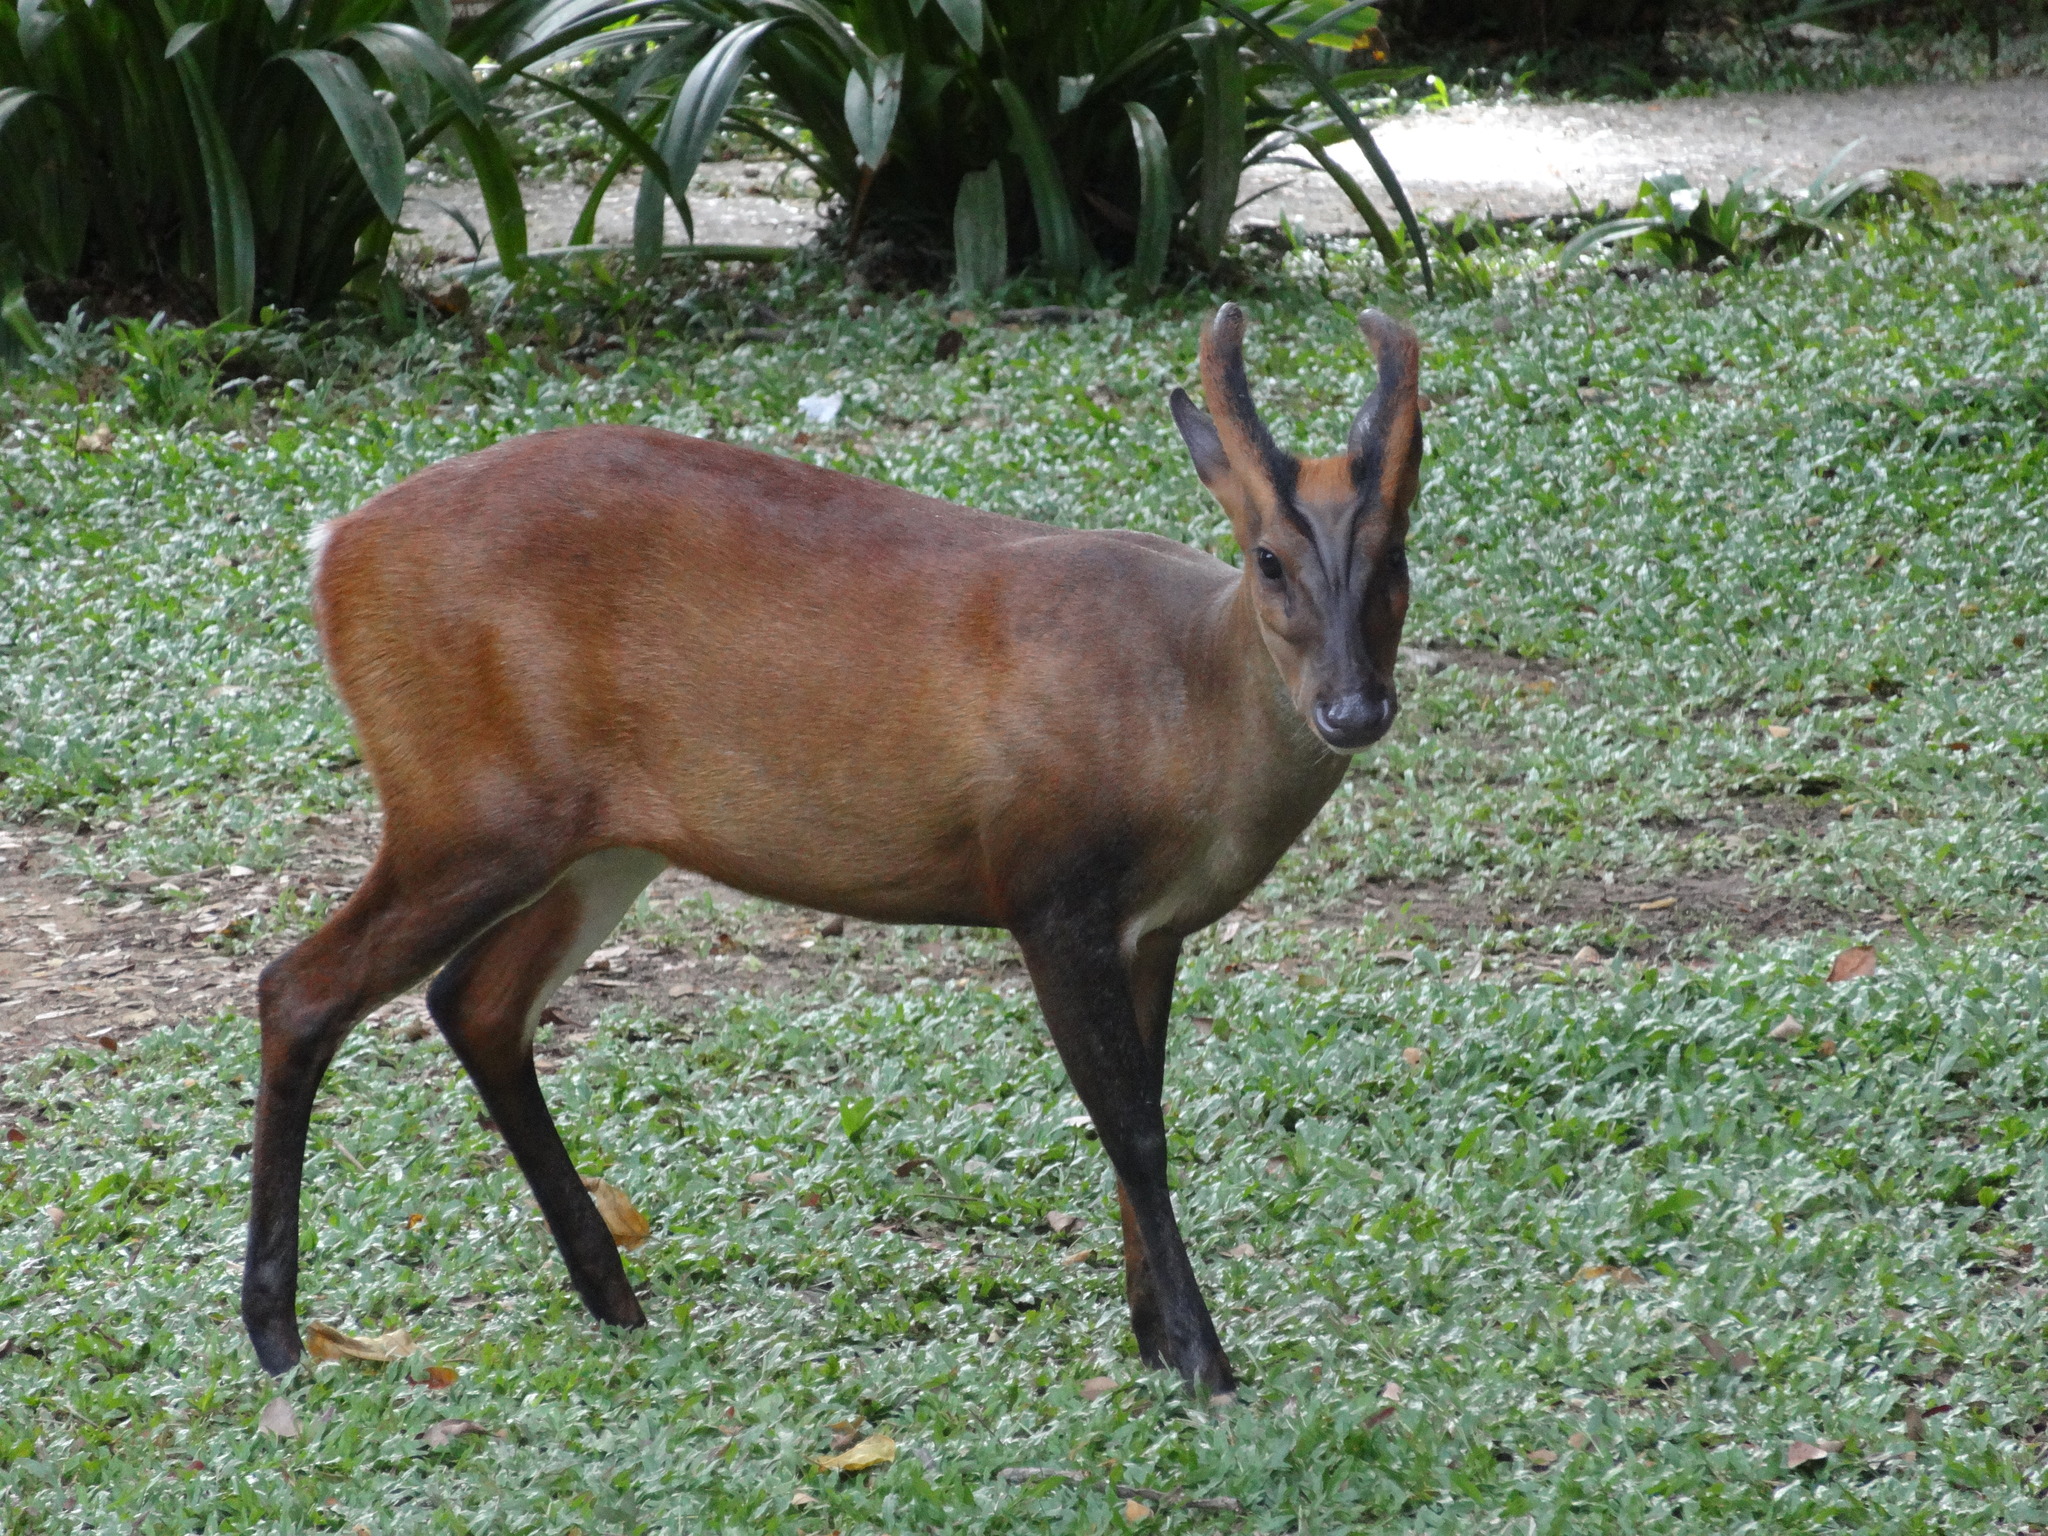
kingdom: Animalia
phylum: Chordata
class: Mammalia
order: Artiodactyla
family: Cervidae
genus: Muntiacus
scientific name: Muntiacus muntjak
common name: Indian muntjac
